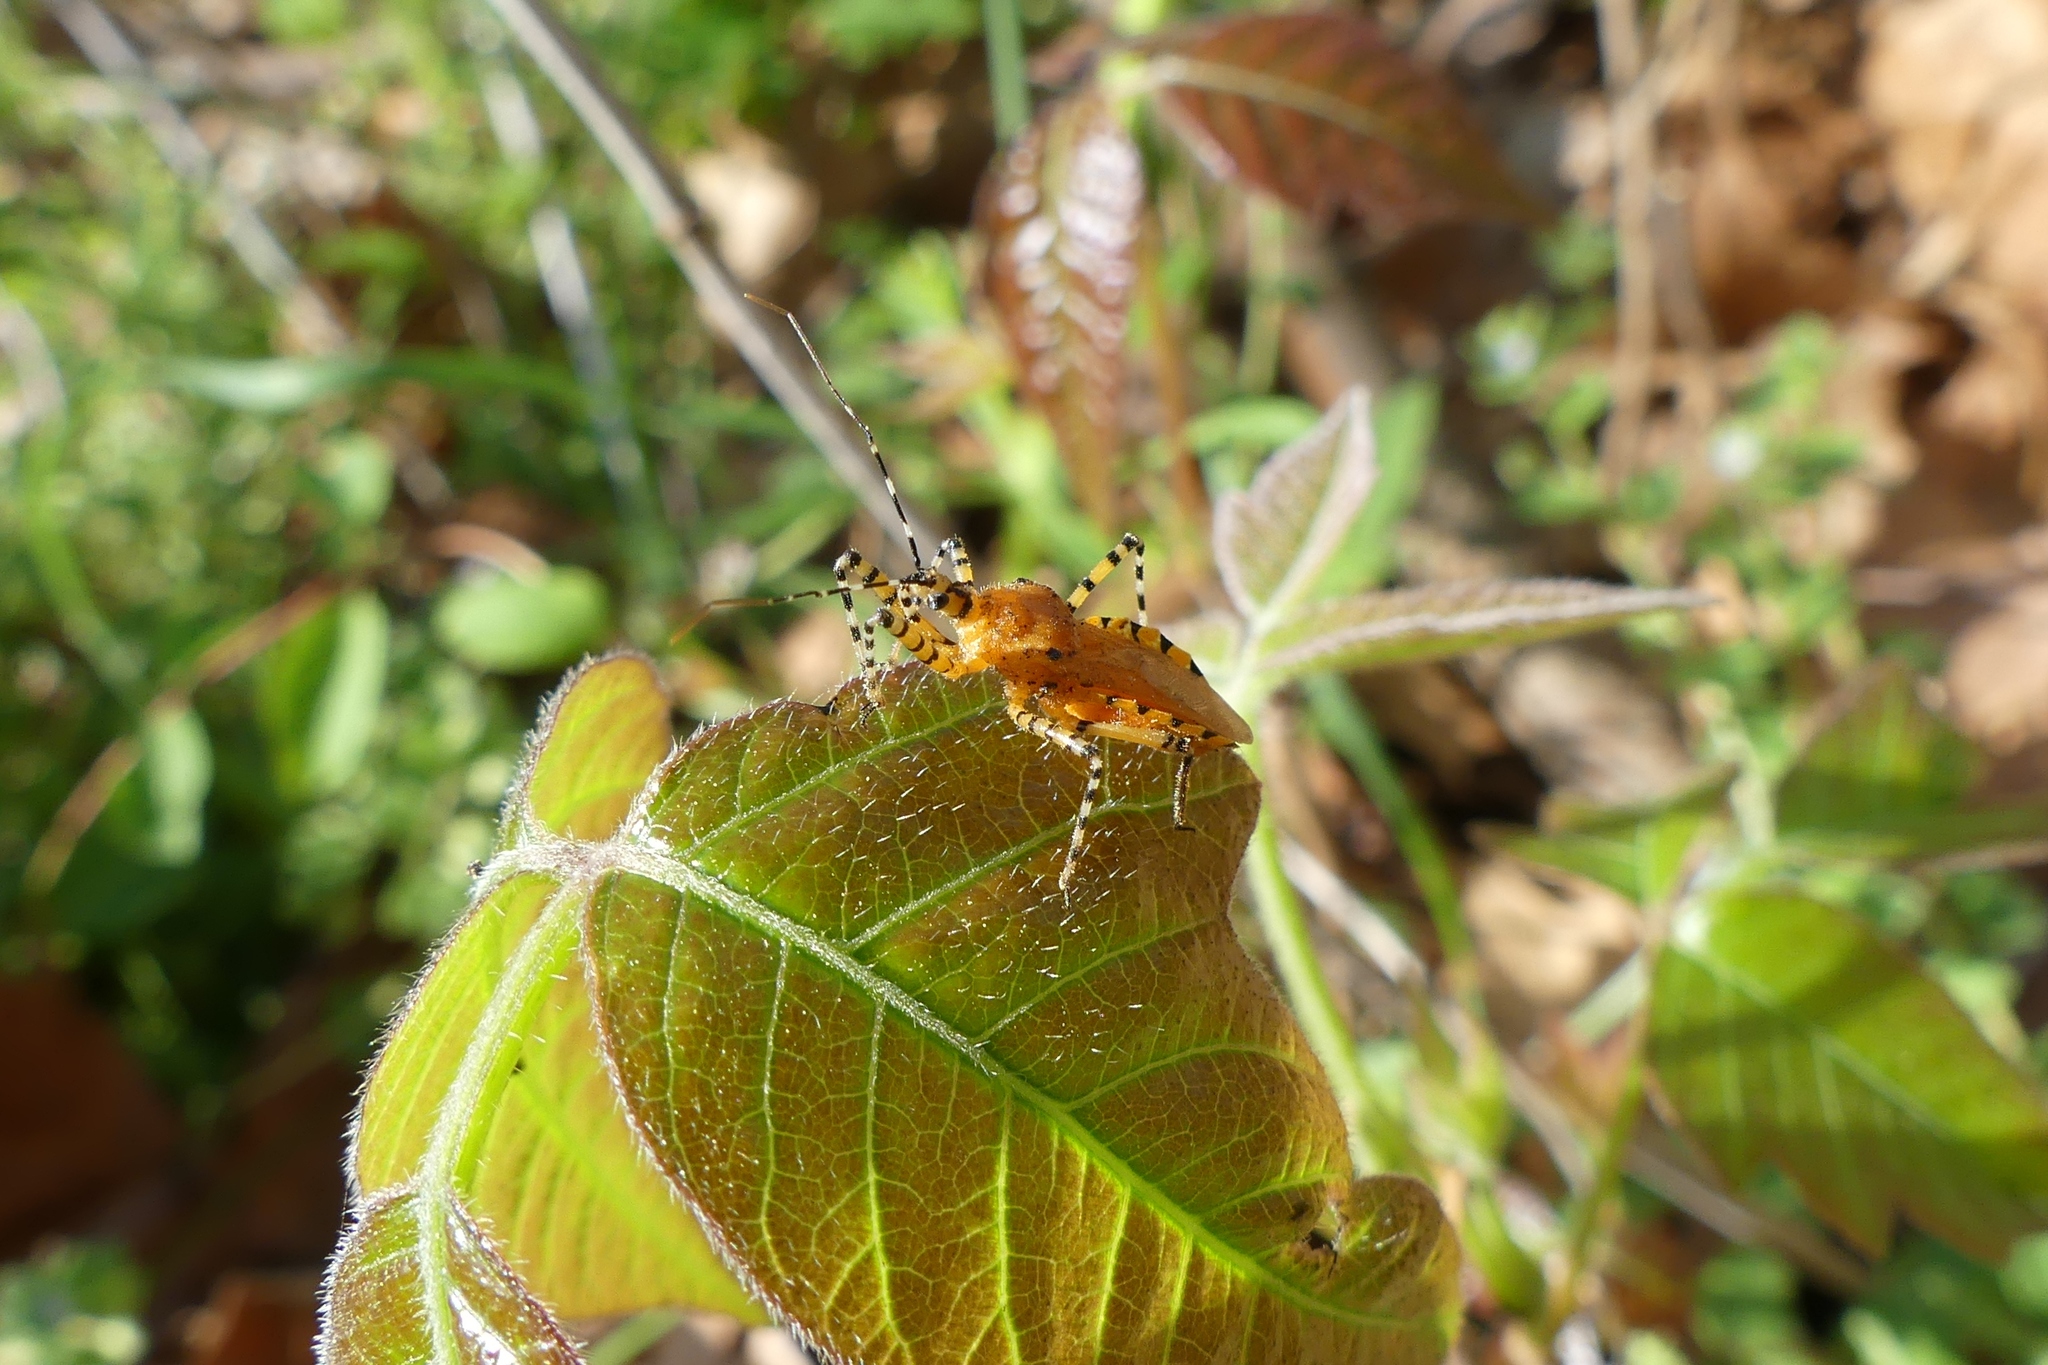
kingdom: Animalia
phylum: Arthropoda
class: Insecta
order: Hemiptera
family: Reduviidae
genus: Pselliopus
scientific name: Pselliopus barberi
